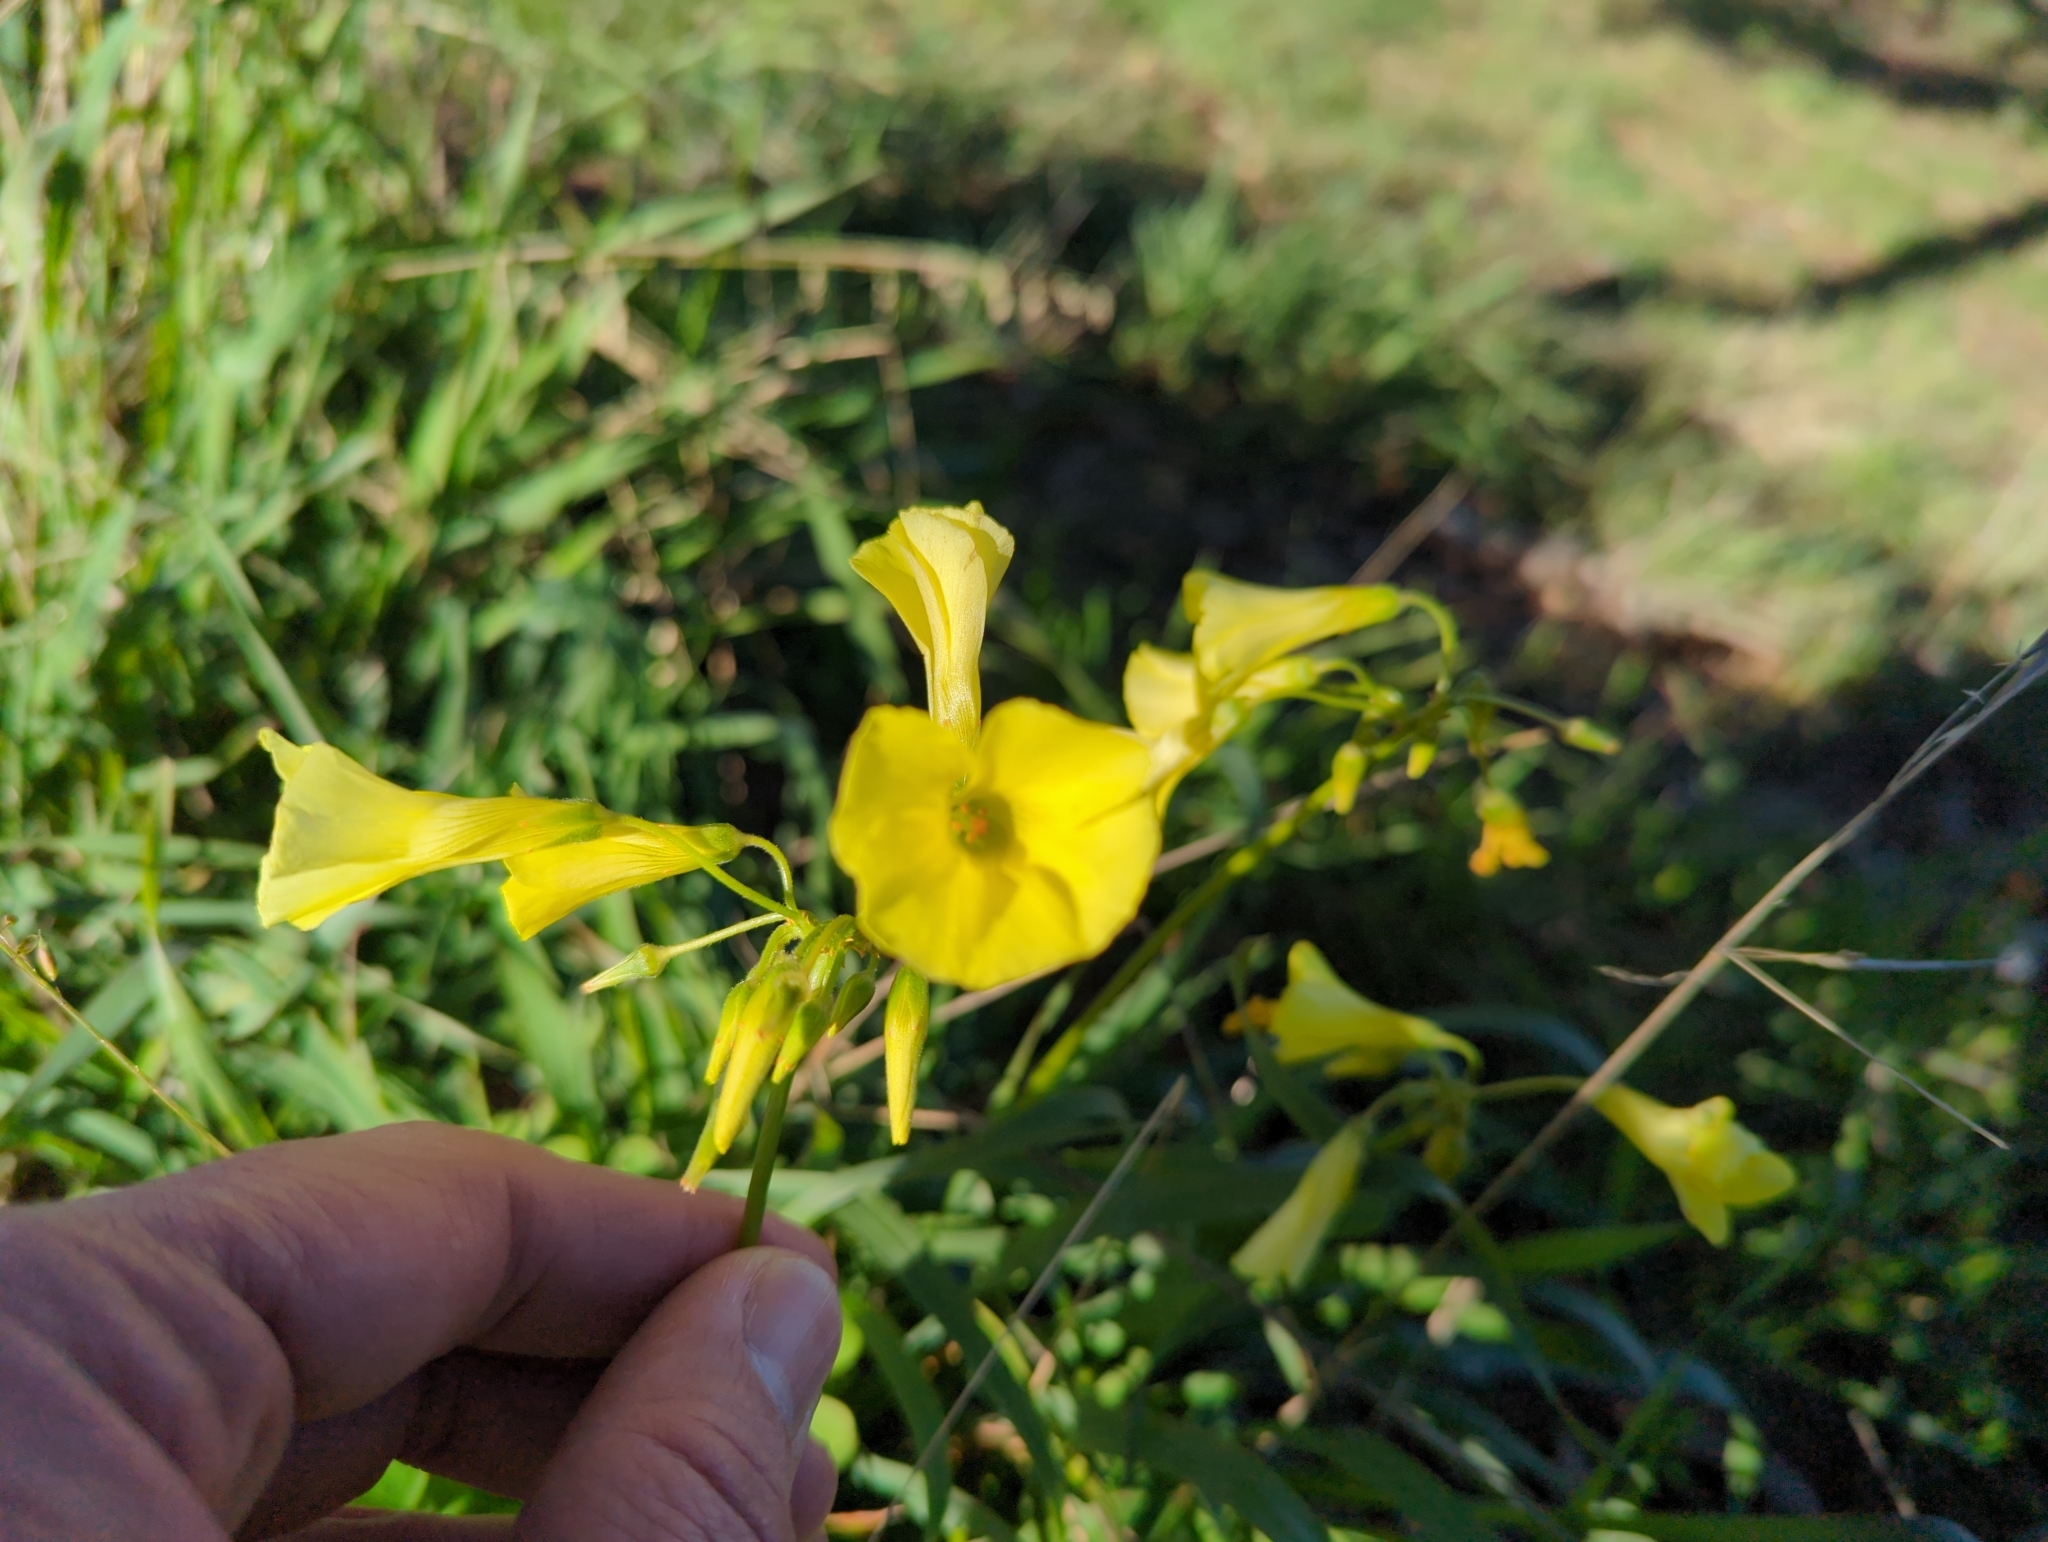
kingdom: Plantae
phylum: Tracheophyta
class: Magnoliopsida
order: Oxalidales
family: Oxalidaceae
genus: Oxalis
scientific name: Oxalis pes-caprae
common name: Bermuda-buttercup
